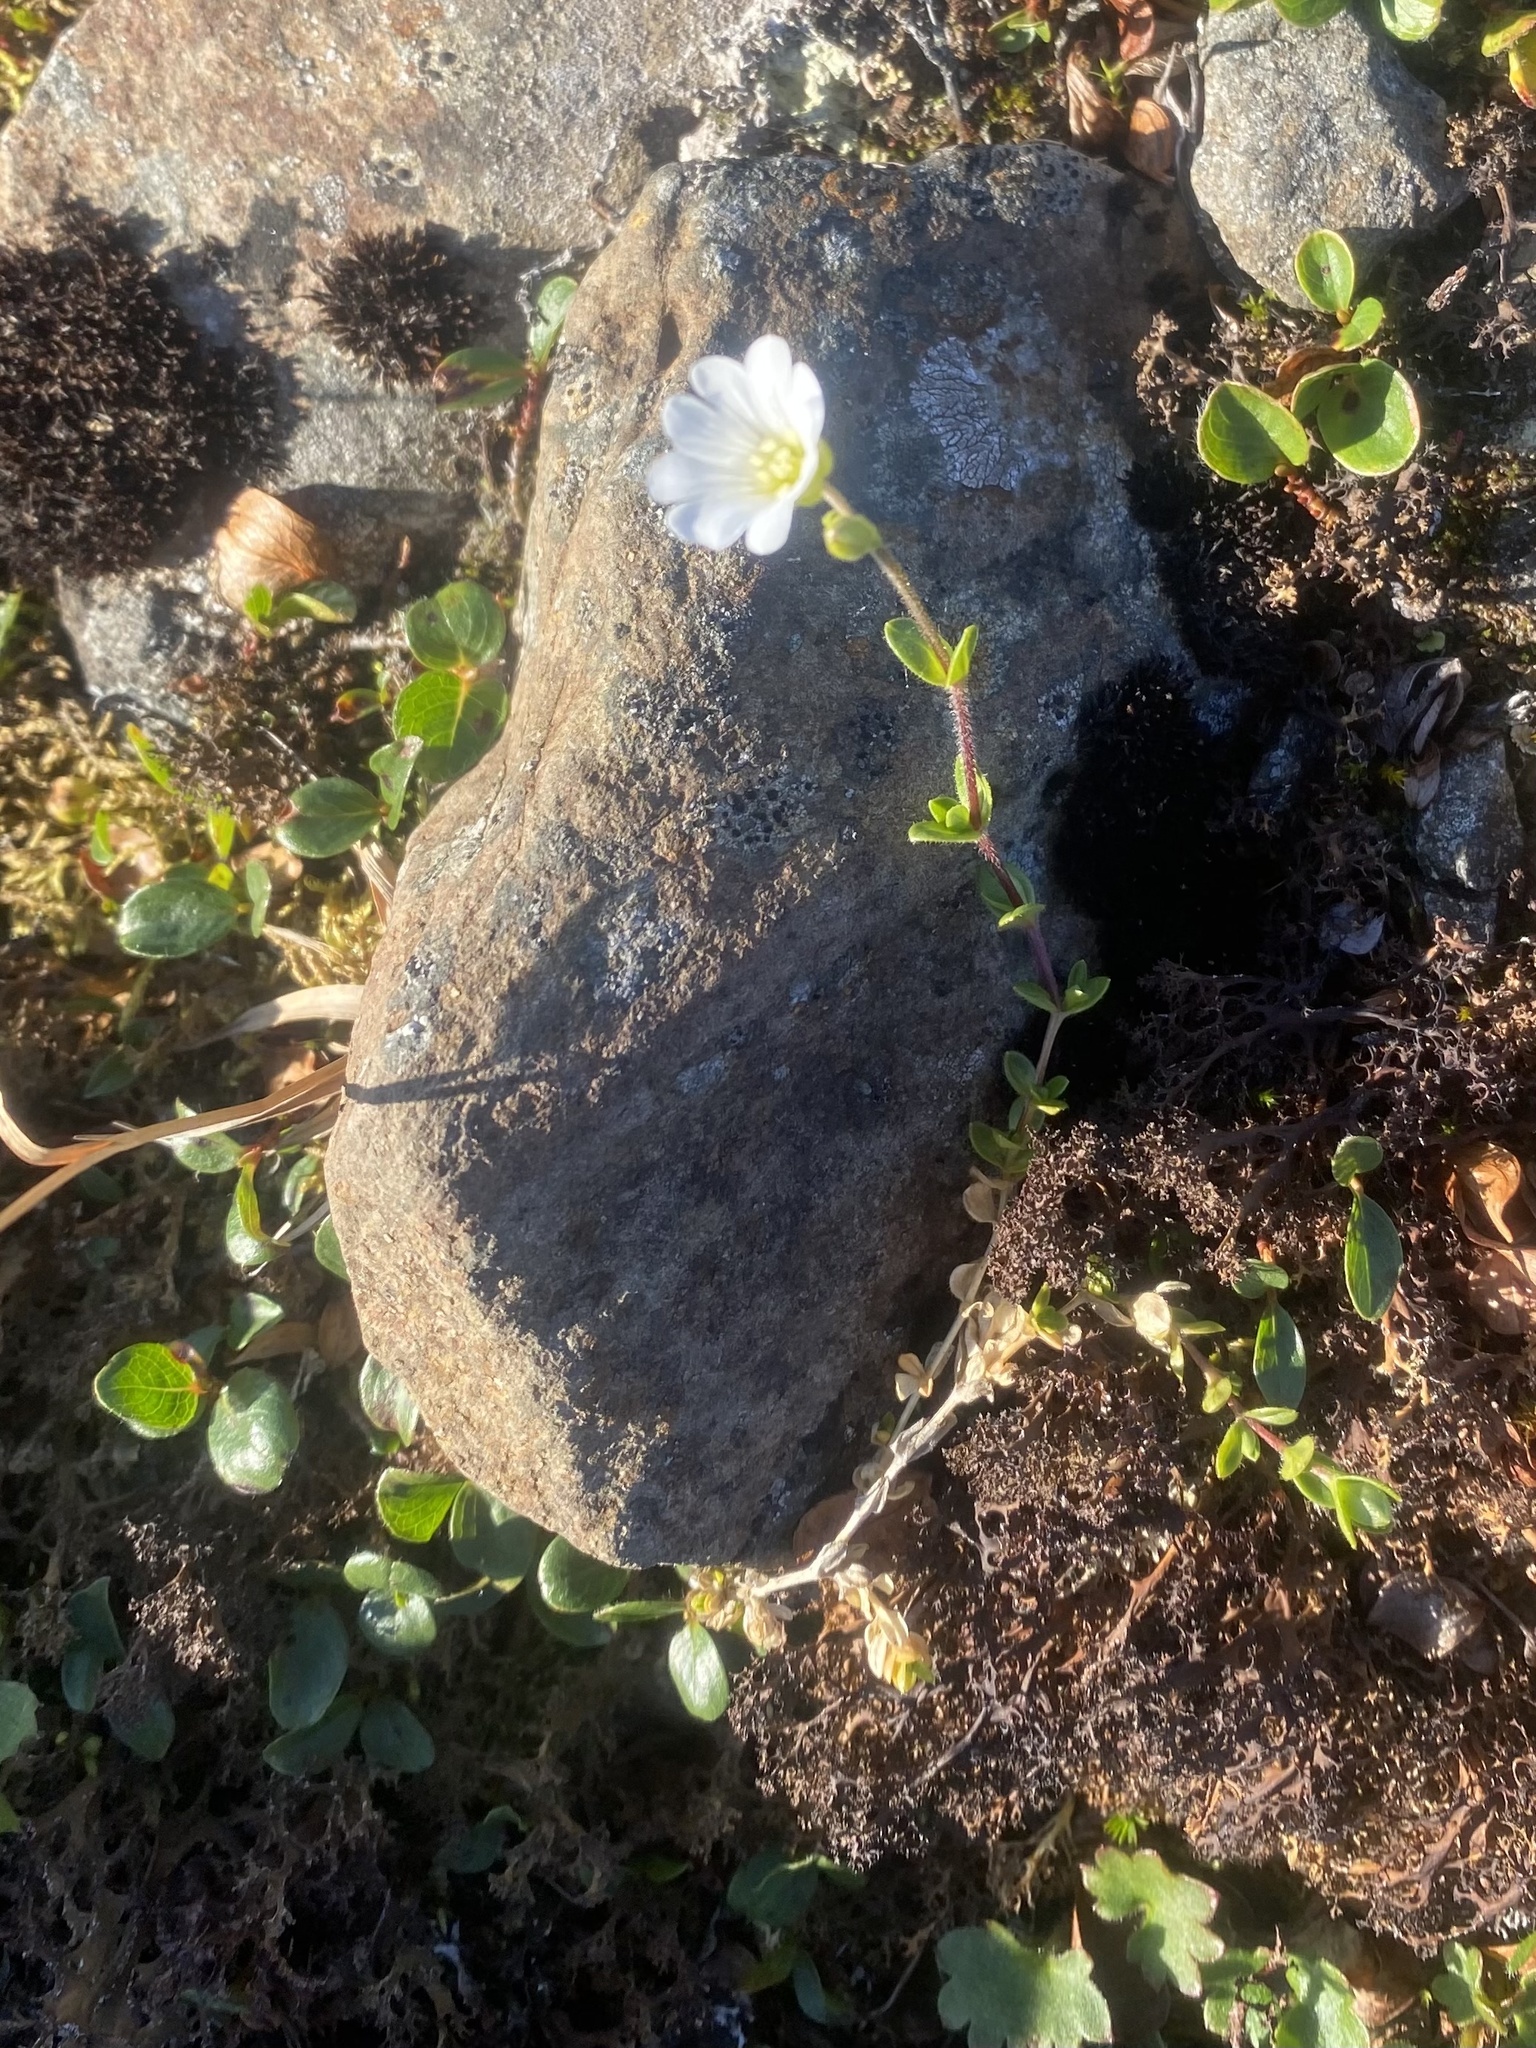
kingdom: Plantae
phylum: Tracheophyta
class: Magnoliopsida
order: Caryophyllales
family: Caryophyllaceae
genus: Cerastium
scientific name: Cerastium regelii
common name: Regel's chickweed
